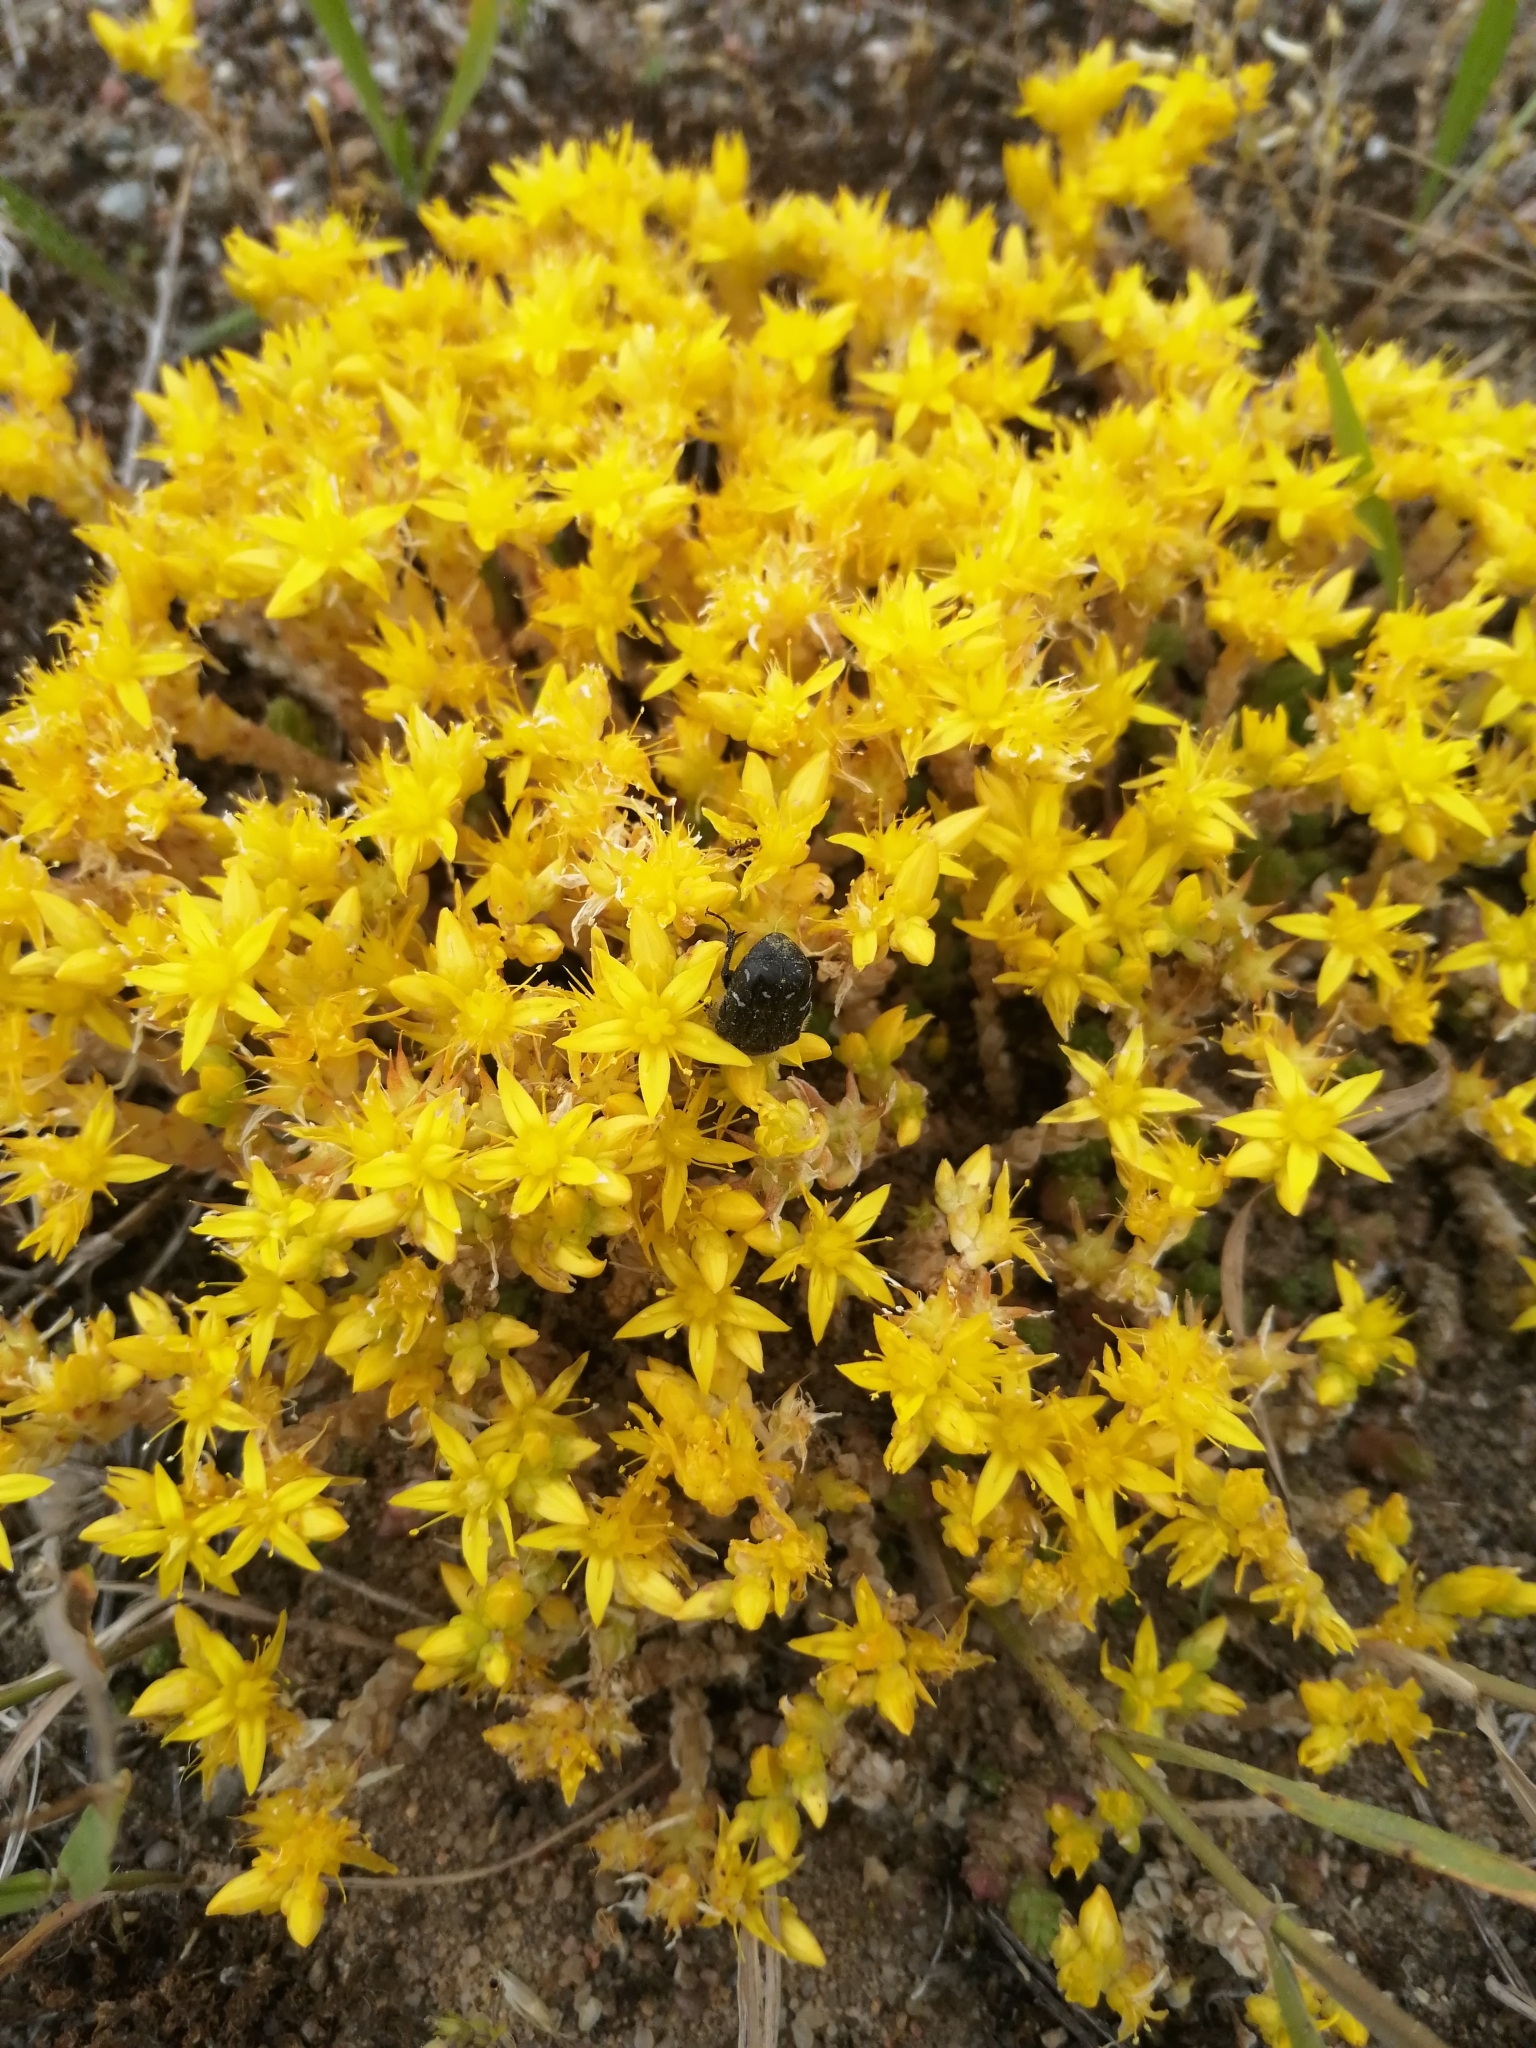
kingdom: Plantae
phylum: Tracheophyta
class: Magnoliopsida
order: Saxifragales
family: Crassulaceae
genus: Sedum
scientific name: Sedum acre
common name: Biting stonecrop
